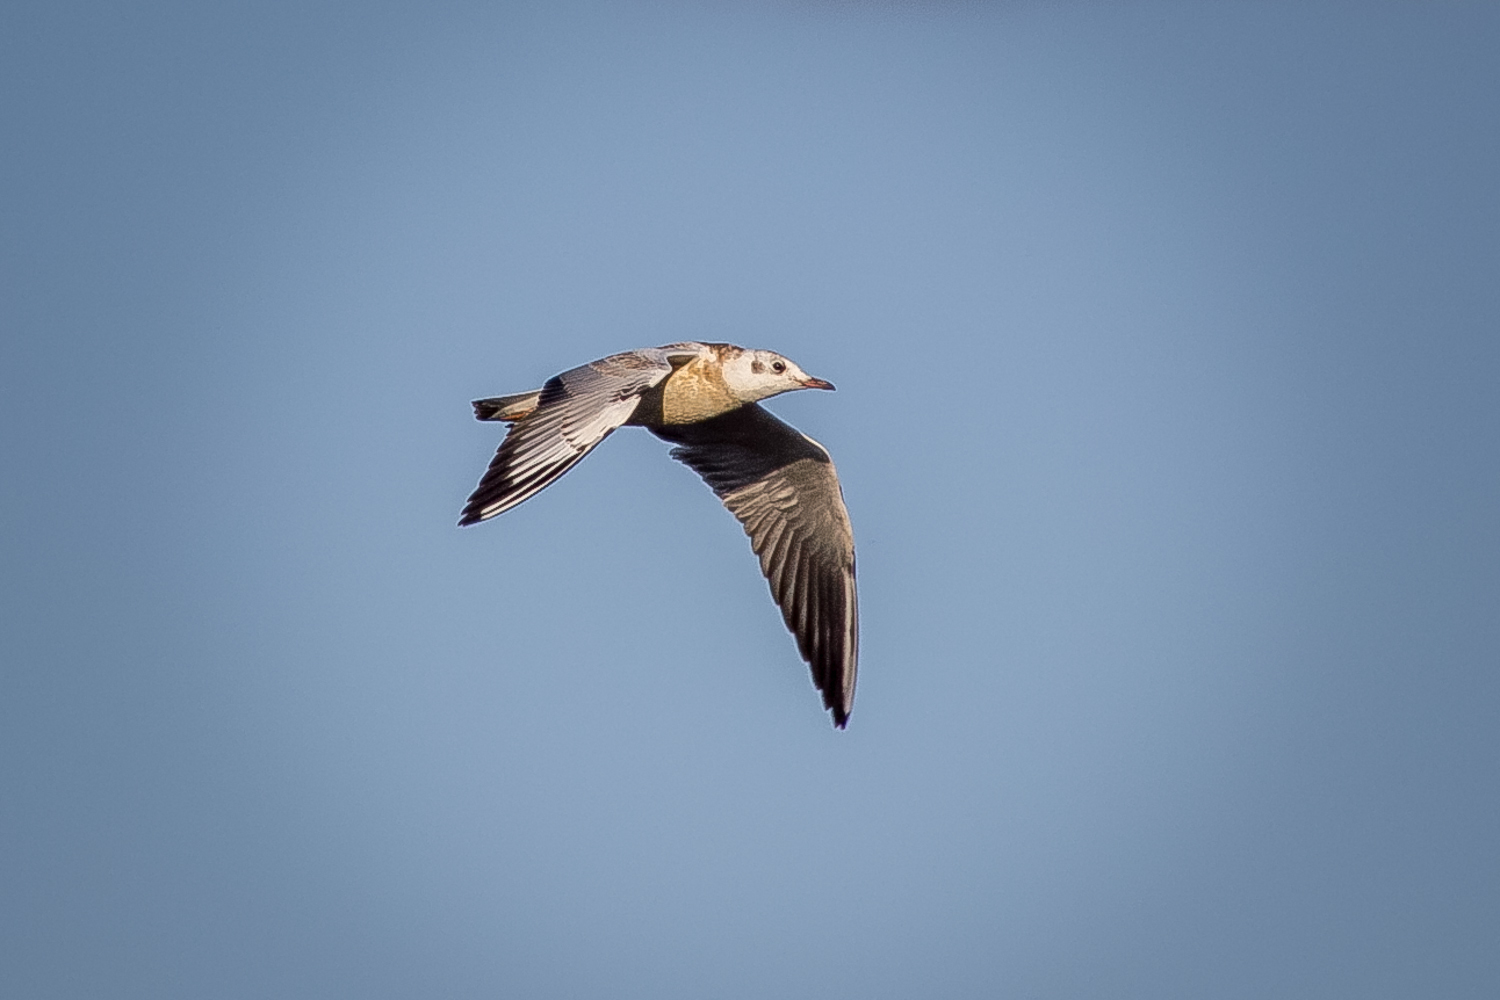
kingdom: Animalia
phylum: Chordata
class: Aves
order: Charadriiformes
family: Laridae
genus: Chroicocephalus
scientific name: Chroicocephalus ridibundus
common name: Black-headed gull
